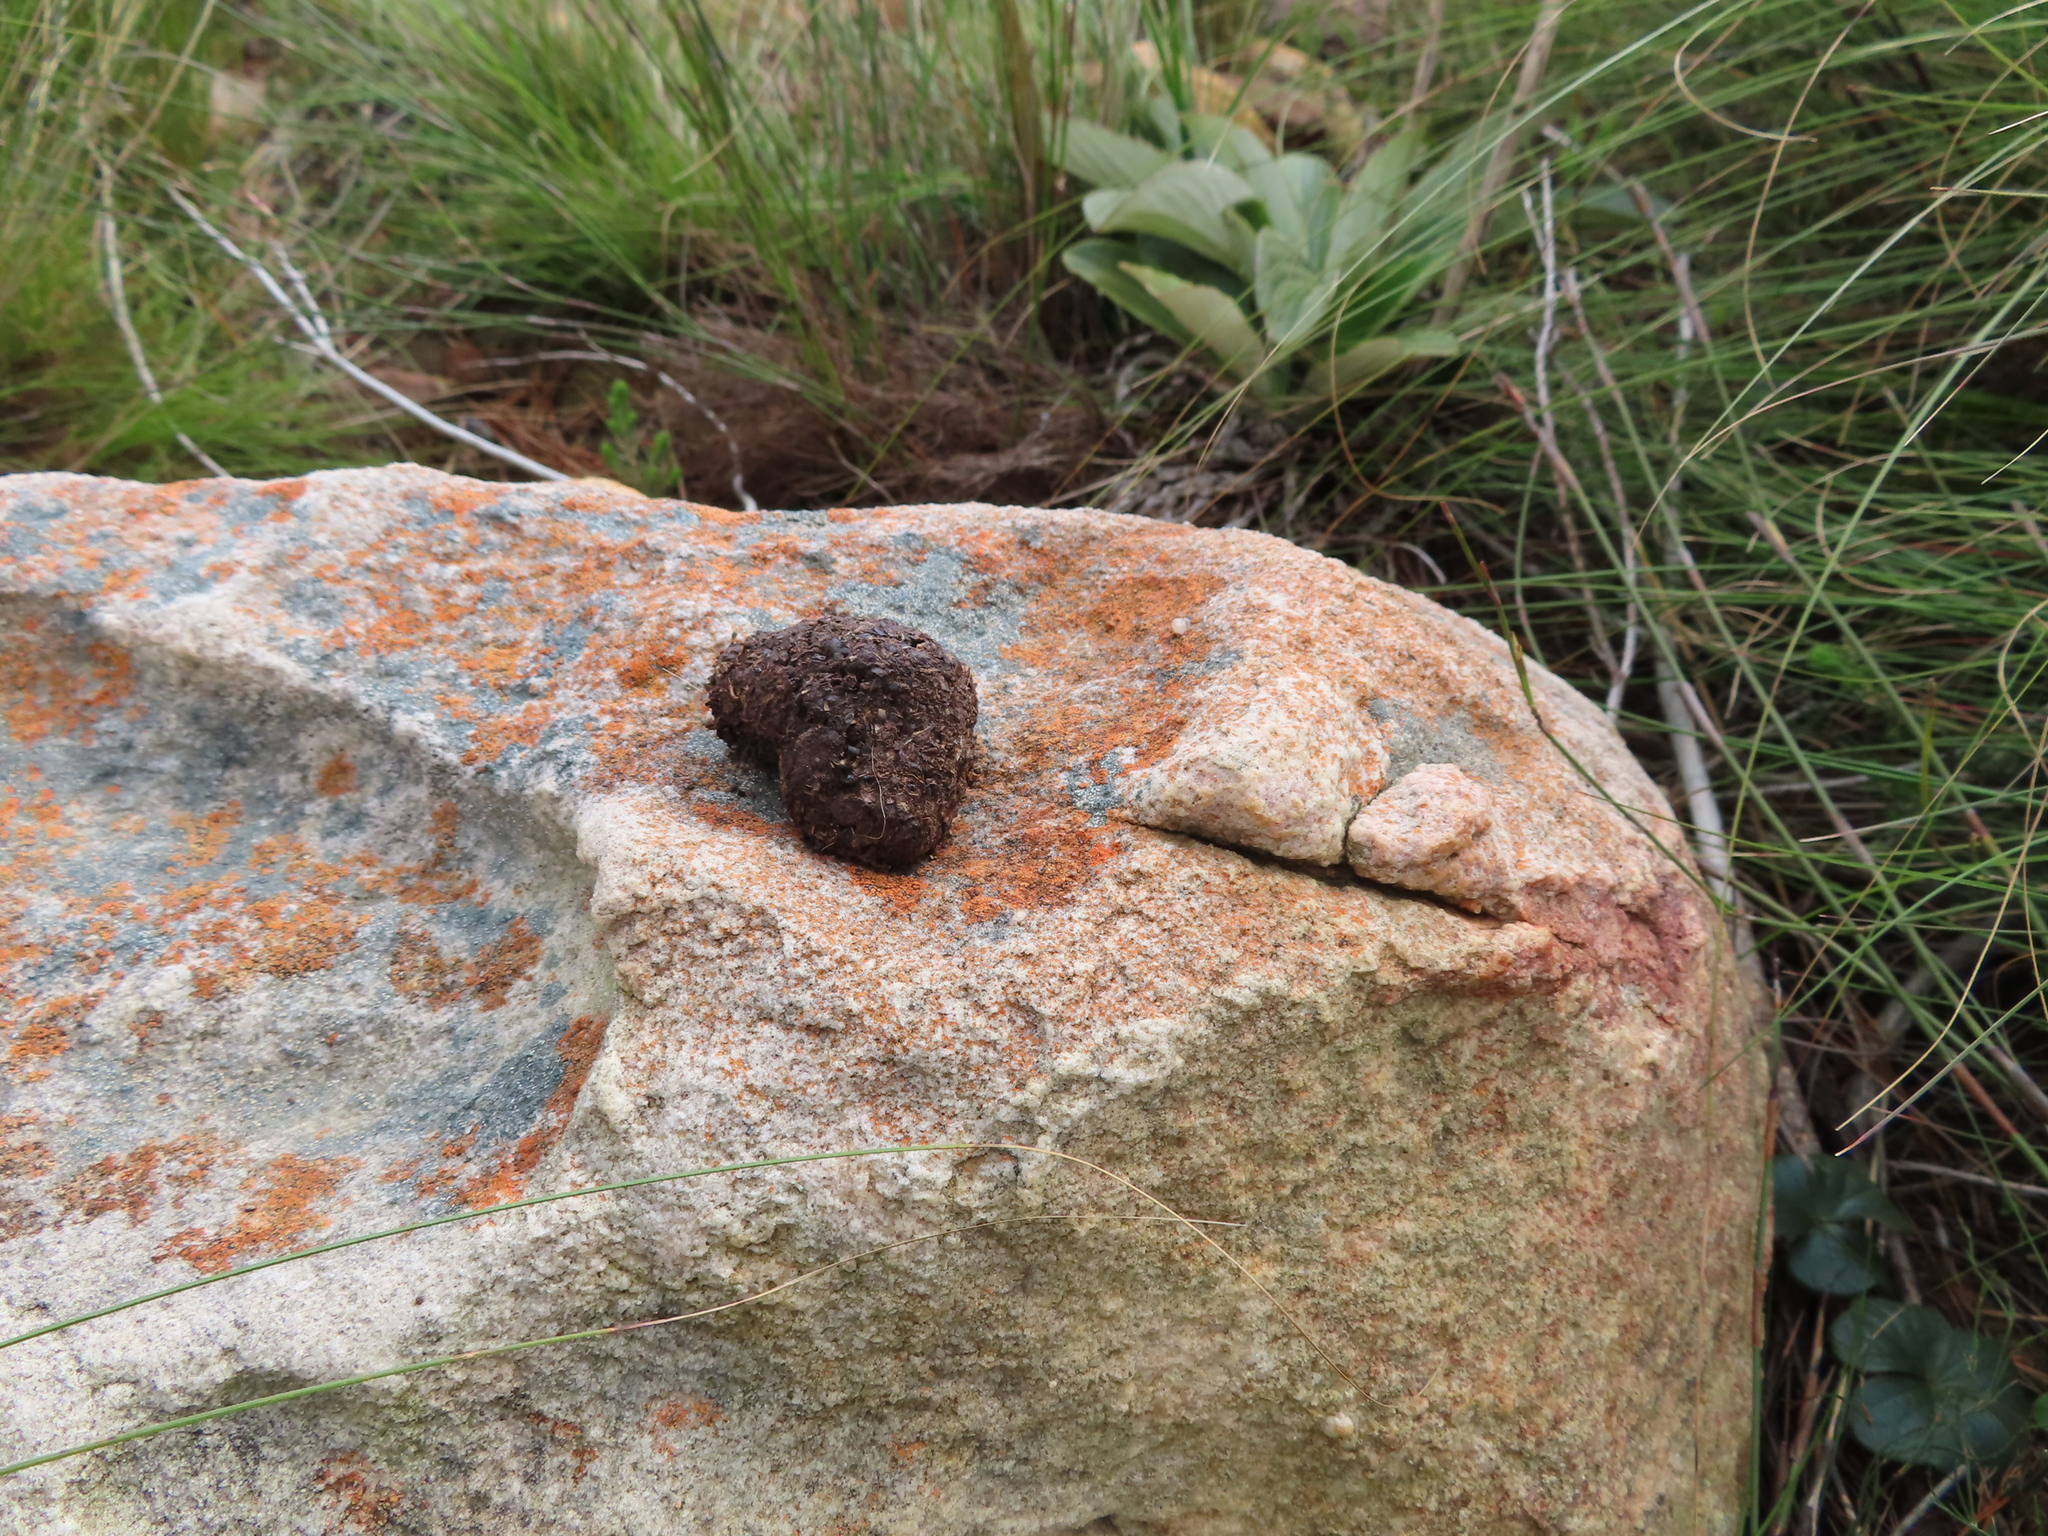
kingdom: Animalia
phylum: Chordata
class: Mammalia
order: Primates
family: Cercopithecidae
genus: Papio
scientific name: Papio ursinus
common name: Chacma baboon
